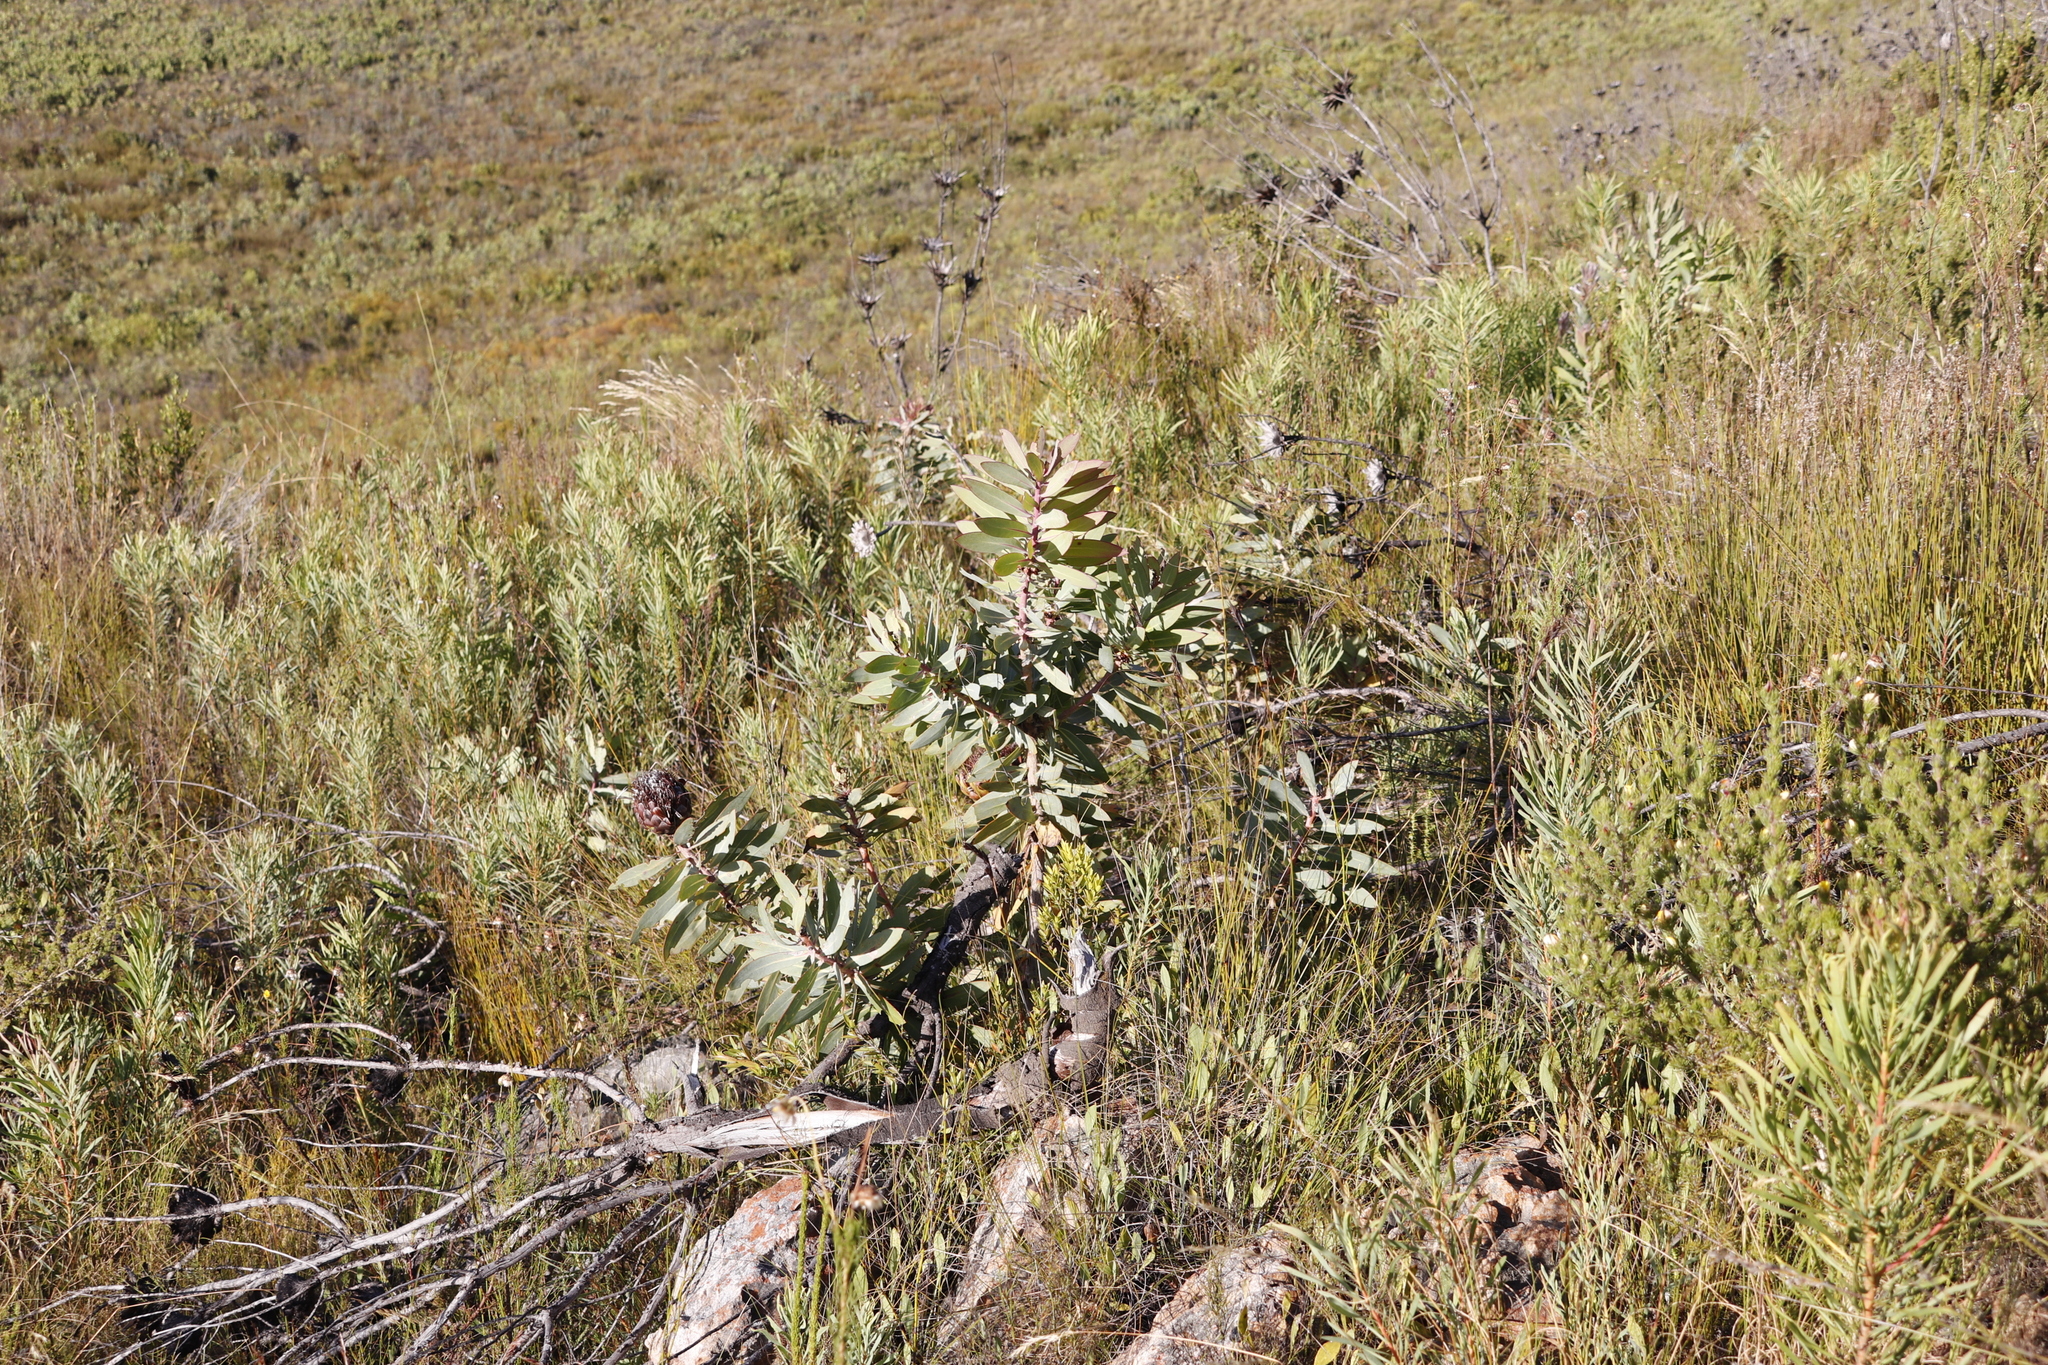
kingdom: Plantae
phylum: Tracheophyta
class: Magnoliopsida
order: Proteales
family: Proteaceae
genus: Protea
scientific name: Protea nitida
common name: Tree protea
